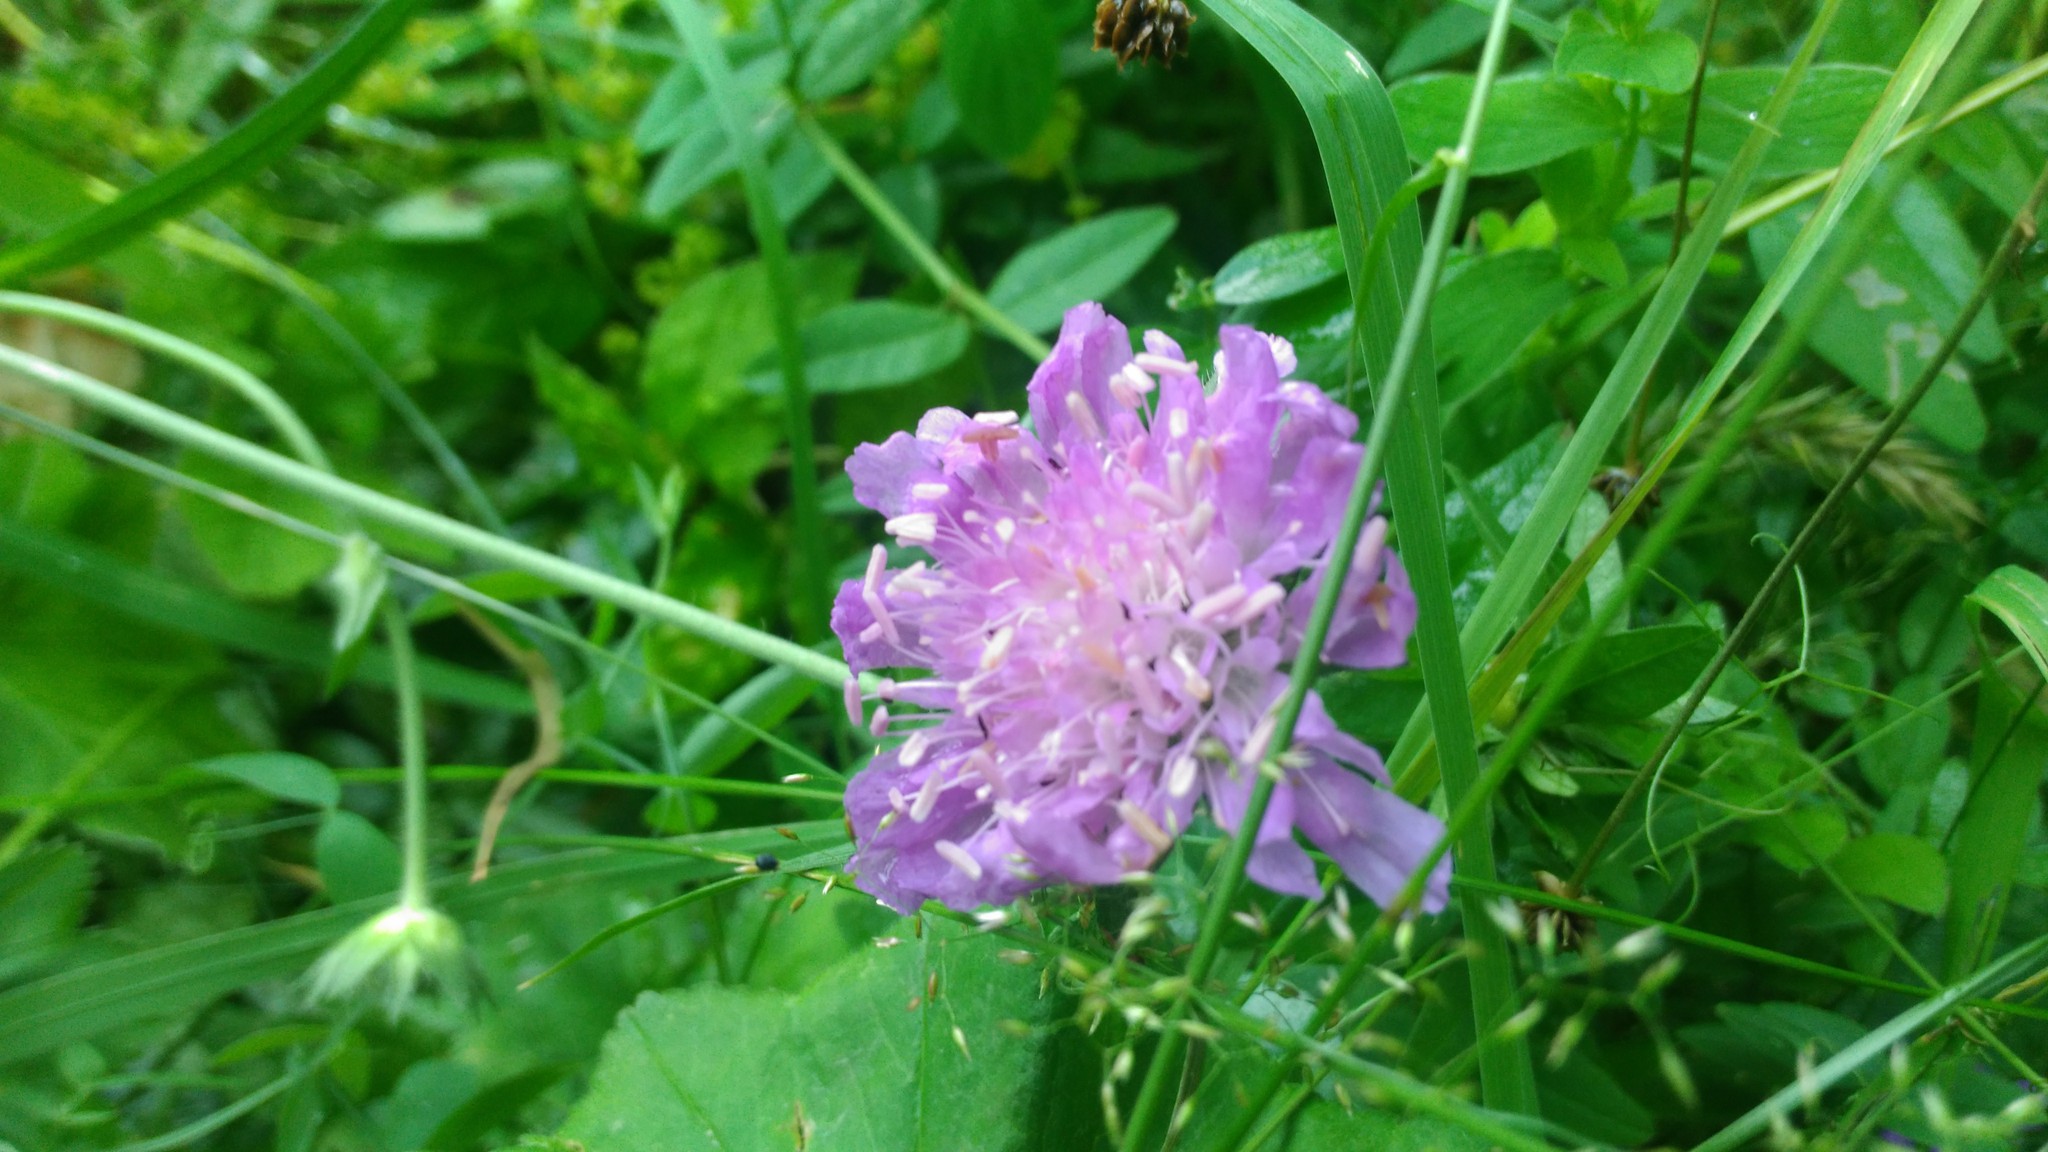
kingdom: Plantae
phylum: Tracheophyta
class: Magnoliopsida
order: Dipsacales
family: Caprifoliaceae
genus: Knautia
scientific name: Knautia arvensis
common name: Field scabiosa
